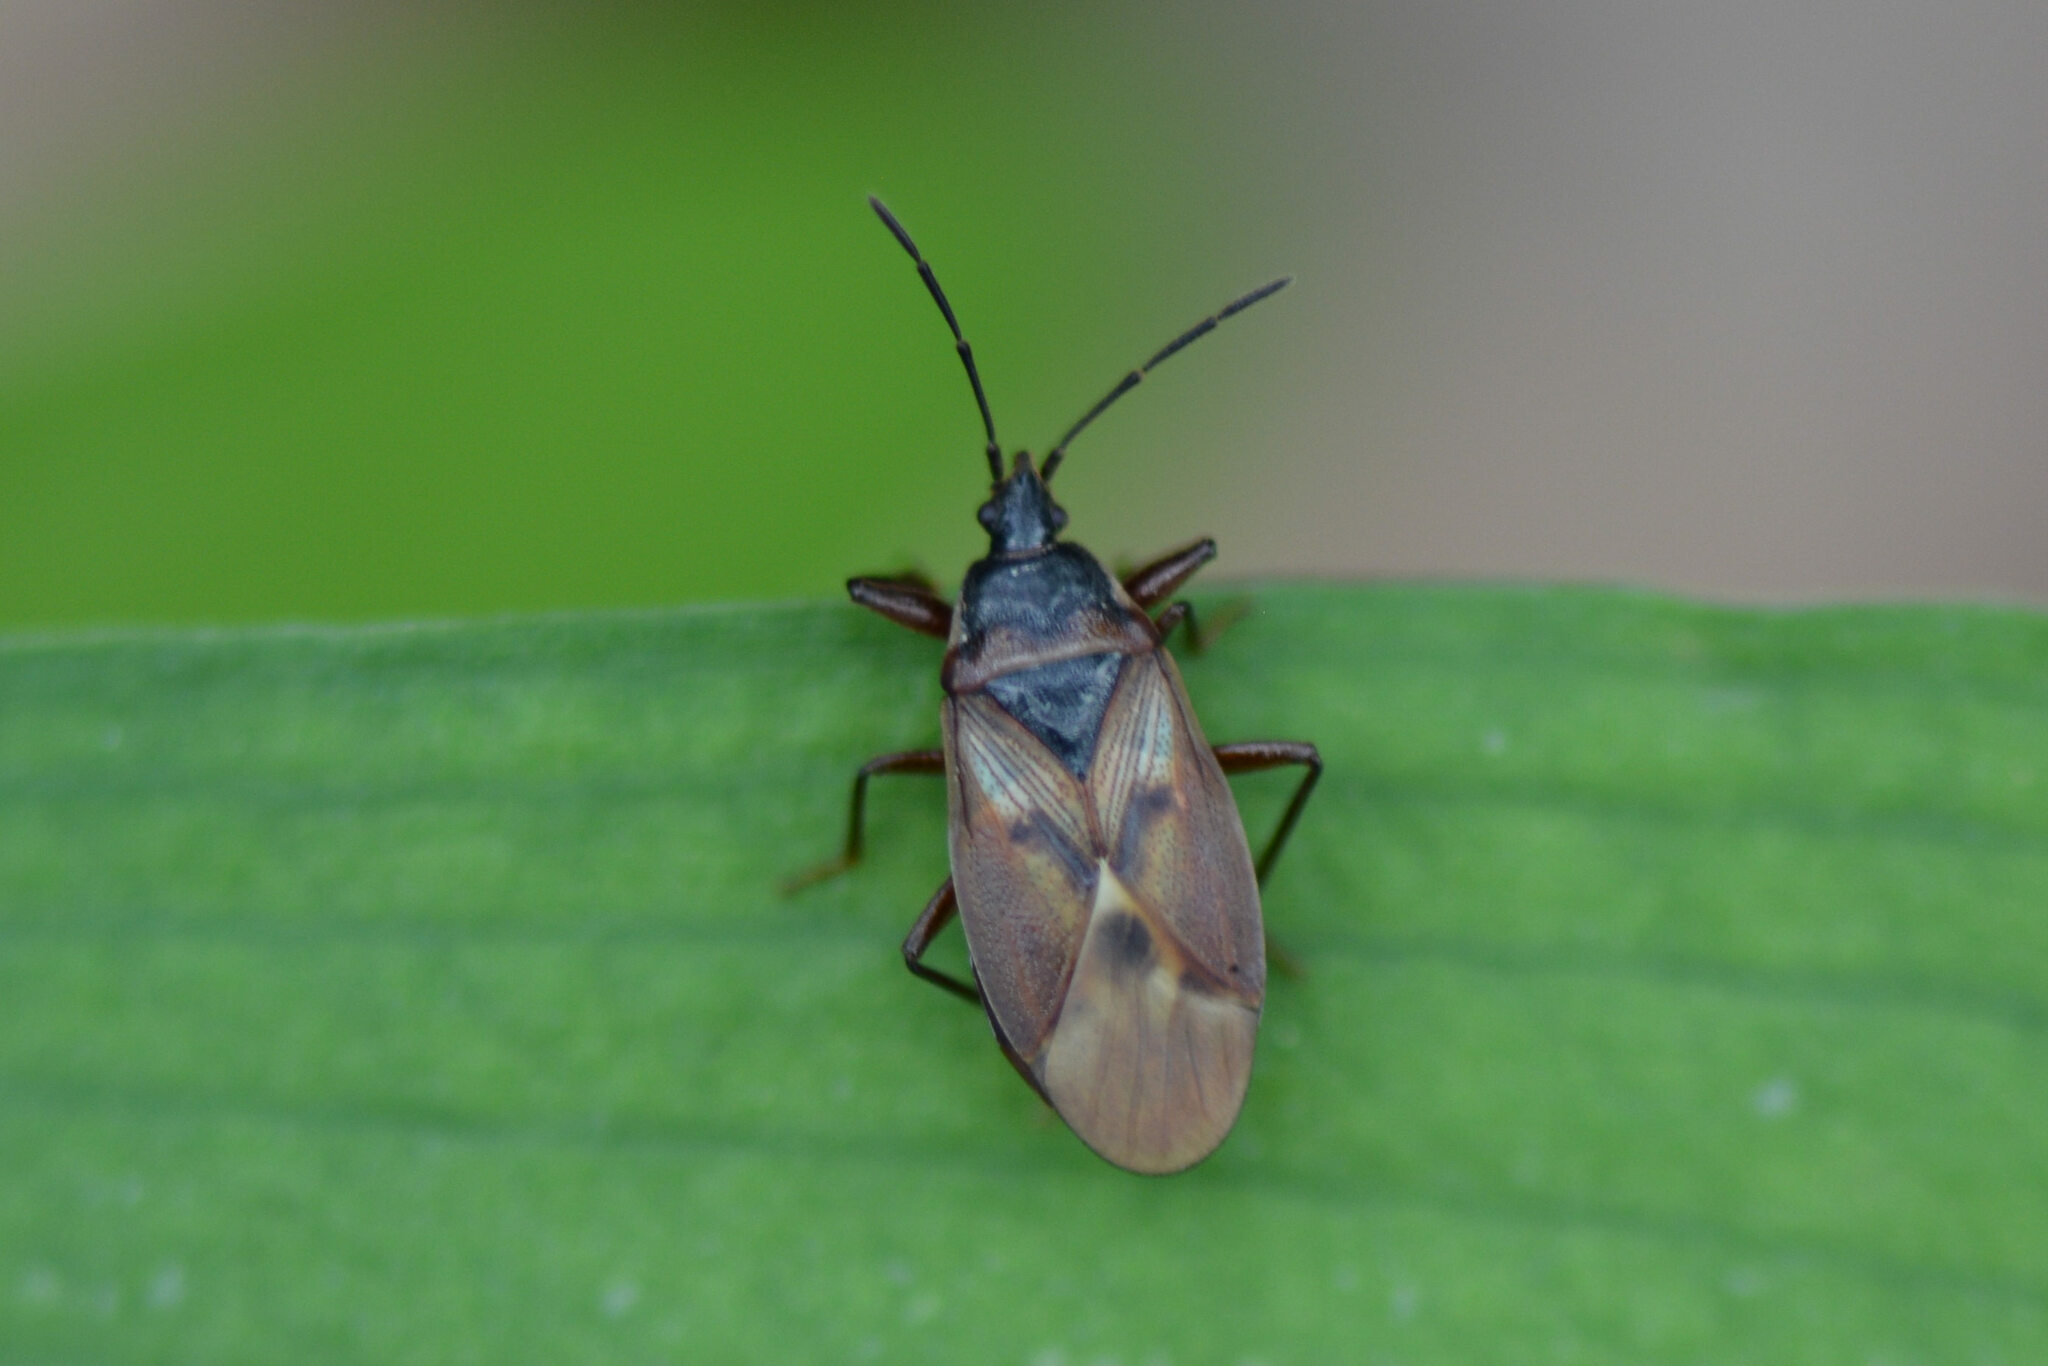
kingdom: Animalia
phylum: Arthropoda
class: Insecta
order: Hemiptera
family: Rhyparochromidae
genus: Gastrodes
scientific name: Gastrodes abietum
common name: Spruce cone bug
